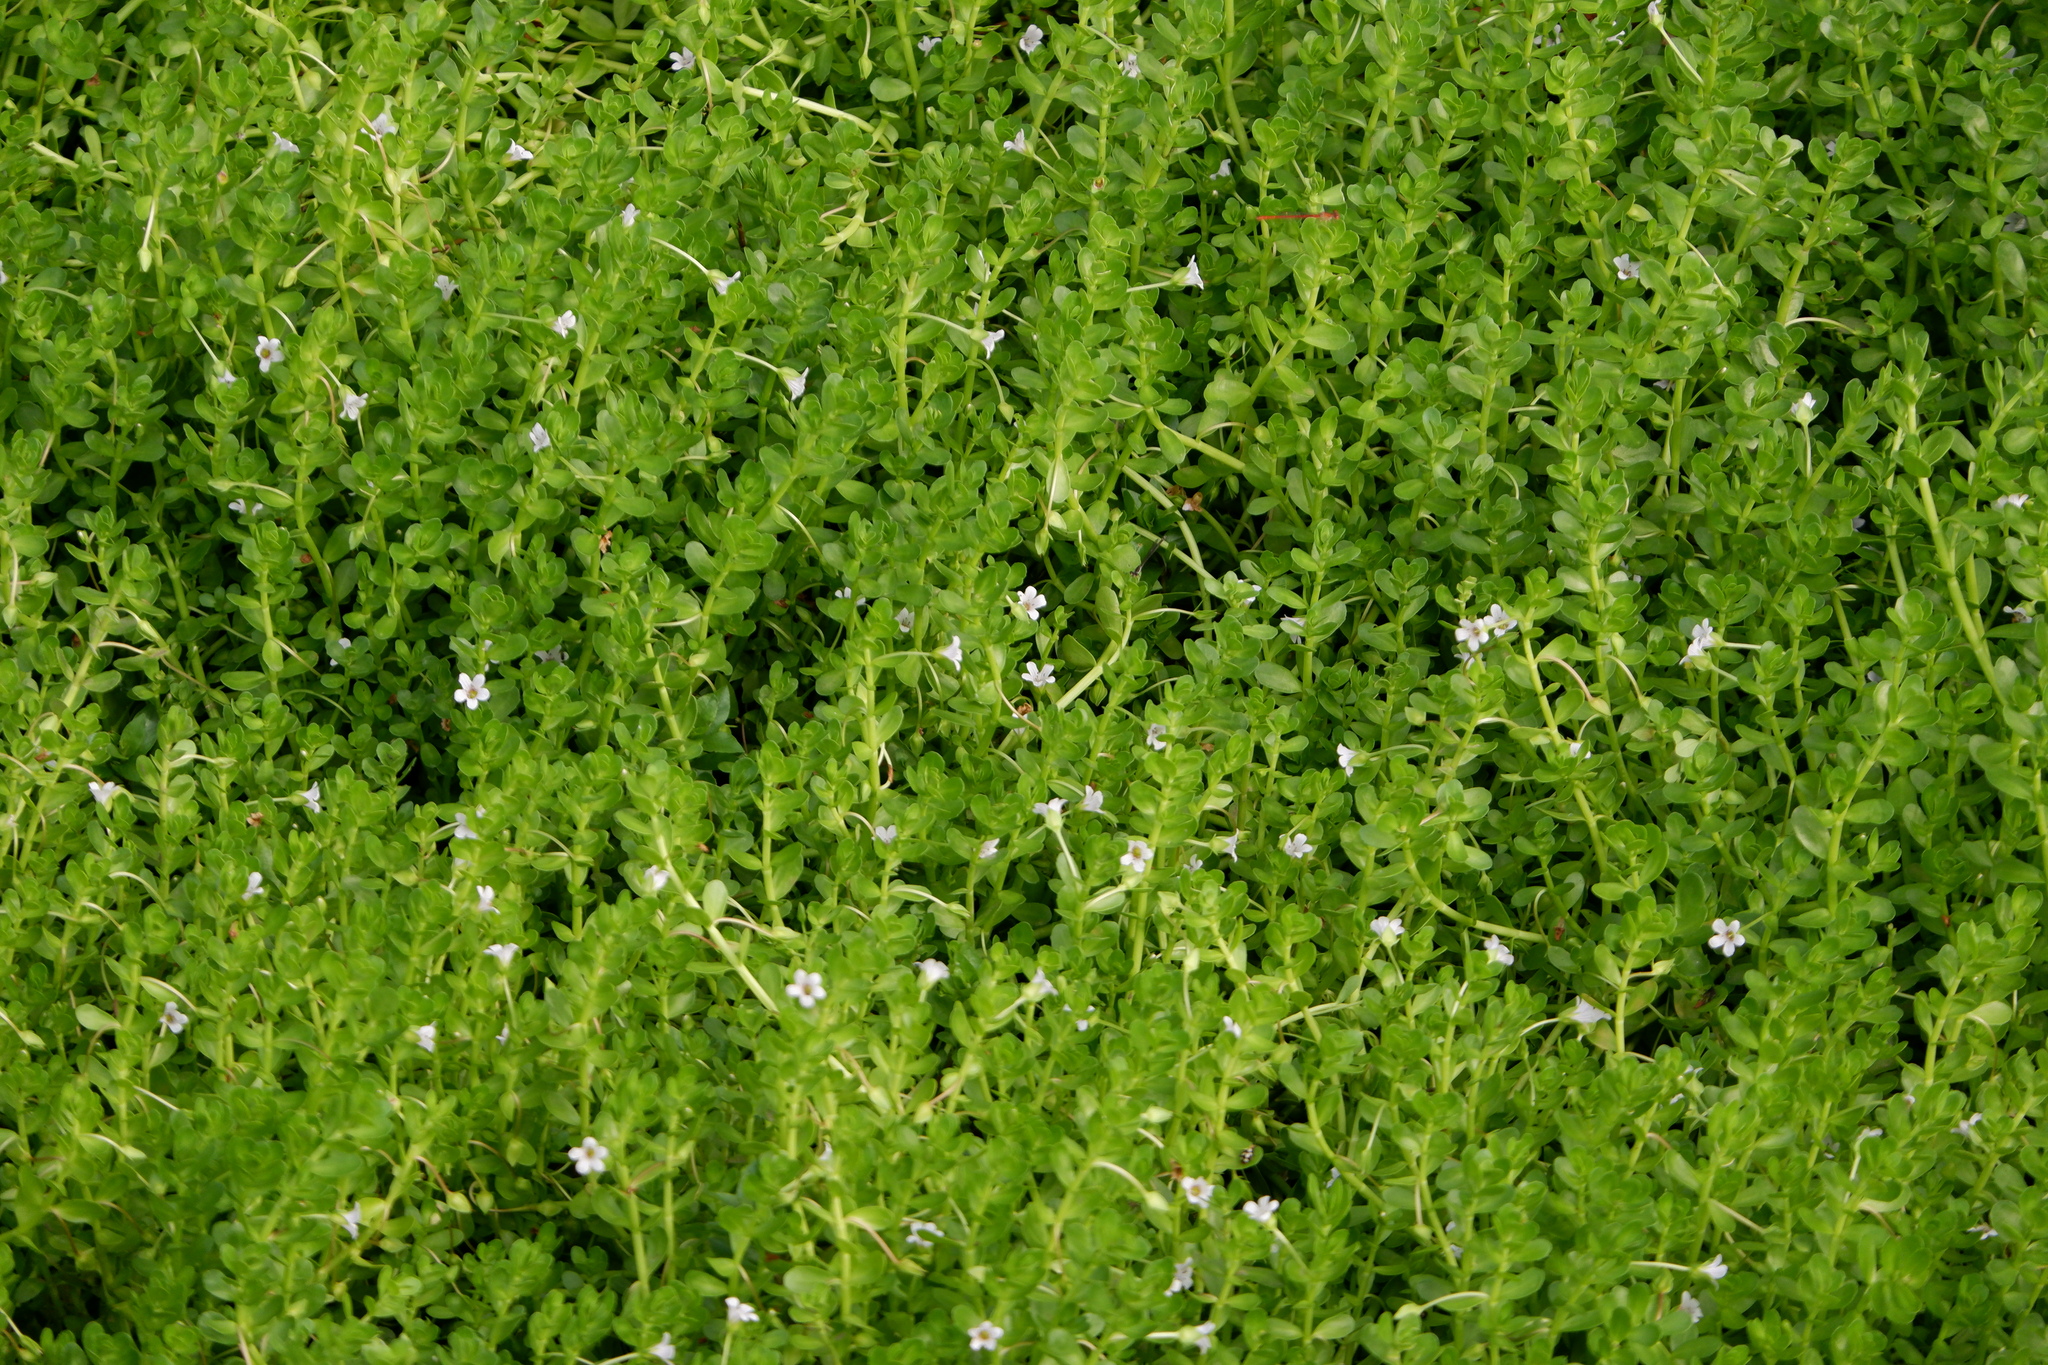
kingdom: Plantae
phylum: Tracheophyta
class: Magnoliopsida
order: Lamiales
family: Plantaginaceae
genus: Bacopa
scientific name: Bacopa monnieri
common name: Indian-pennywort
